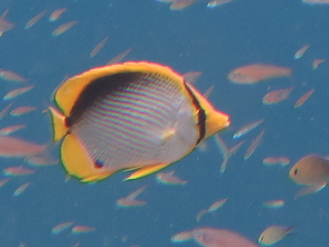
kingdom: Animalia
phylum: Chordata
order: Perciformes
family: Chaetodontidae
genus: Chaetodon
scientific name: Chaetodon melannotus
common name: Blackback butterflyfish
